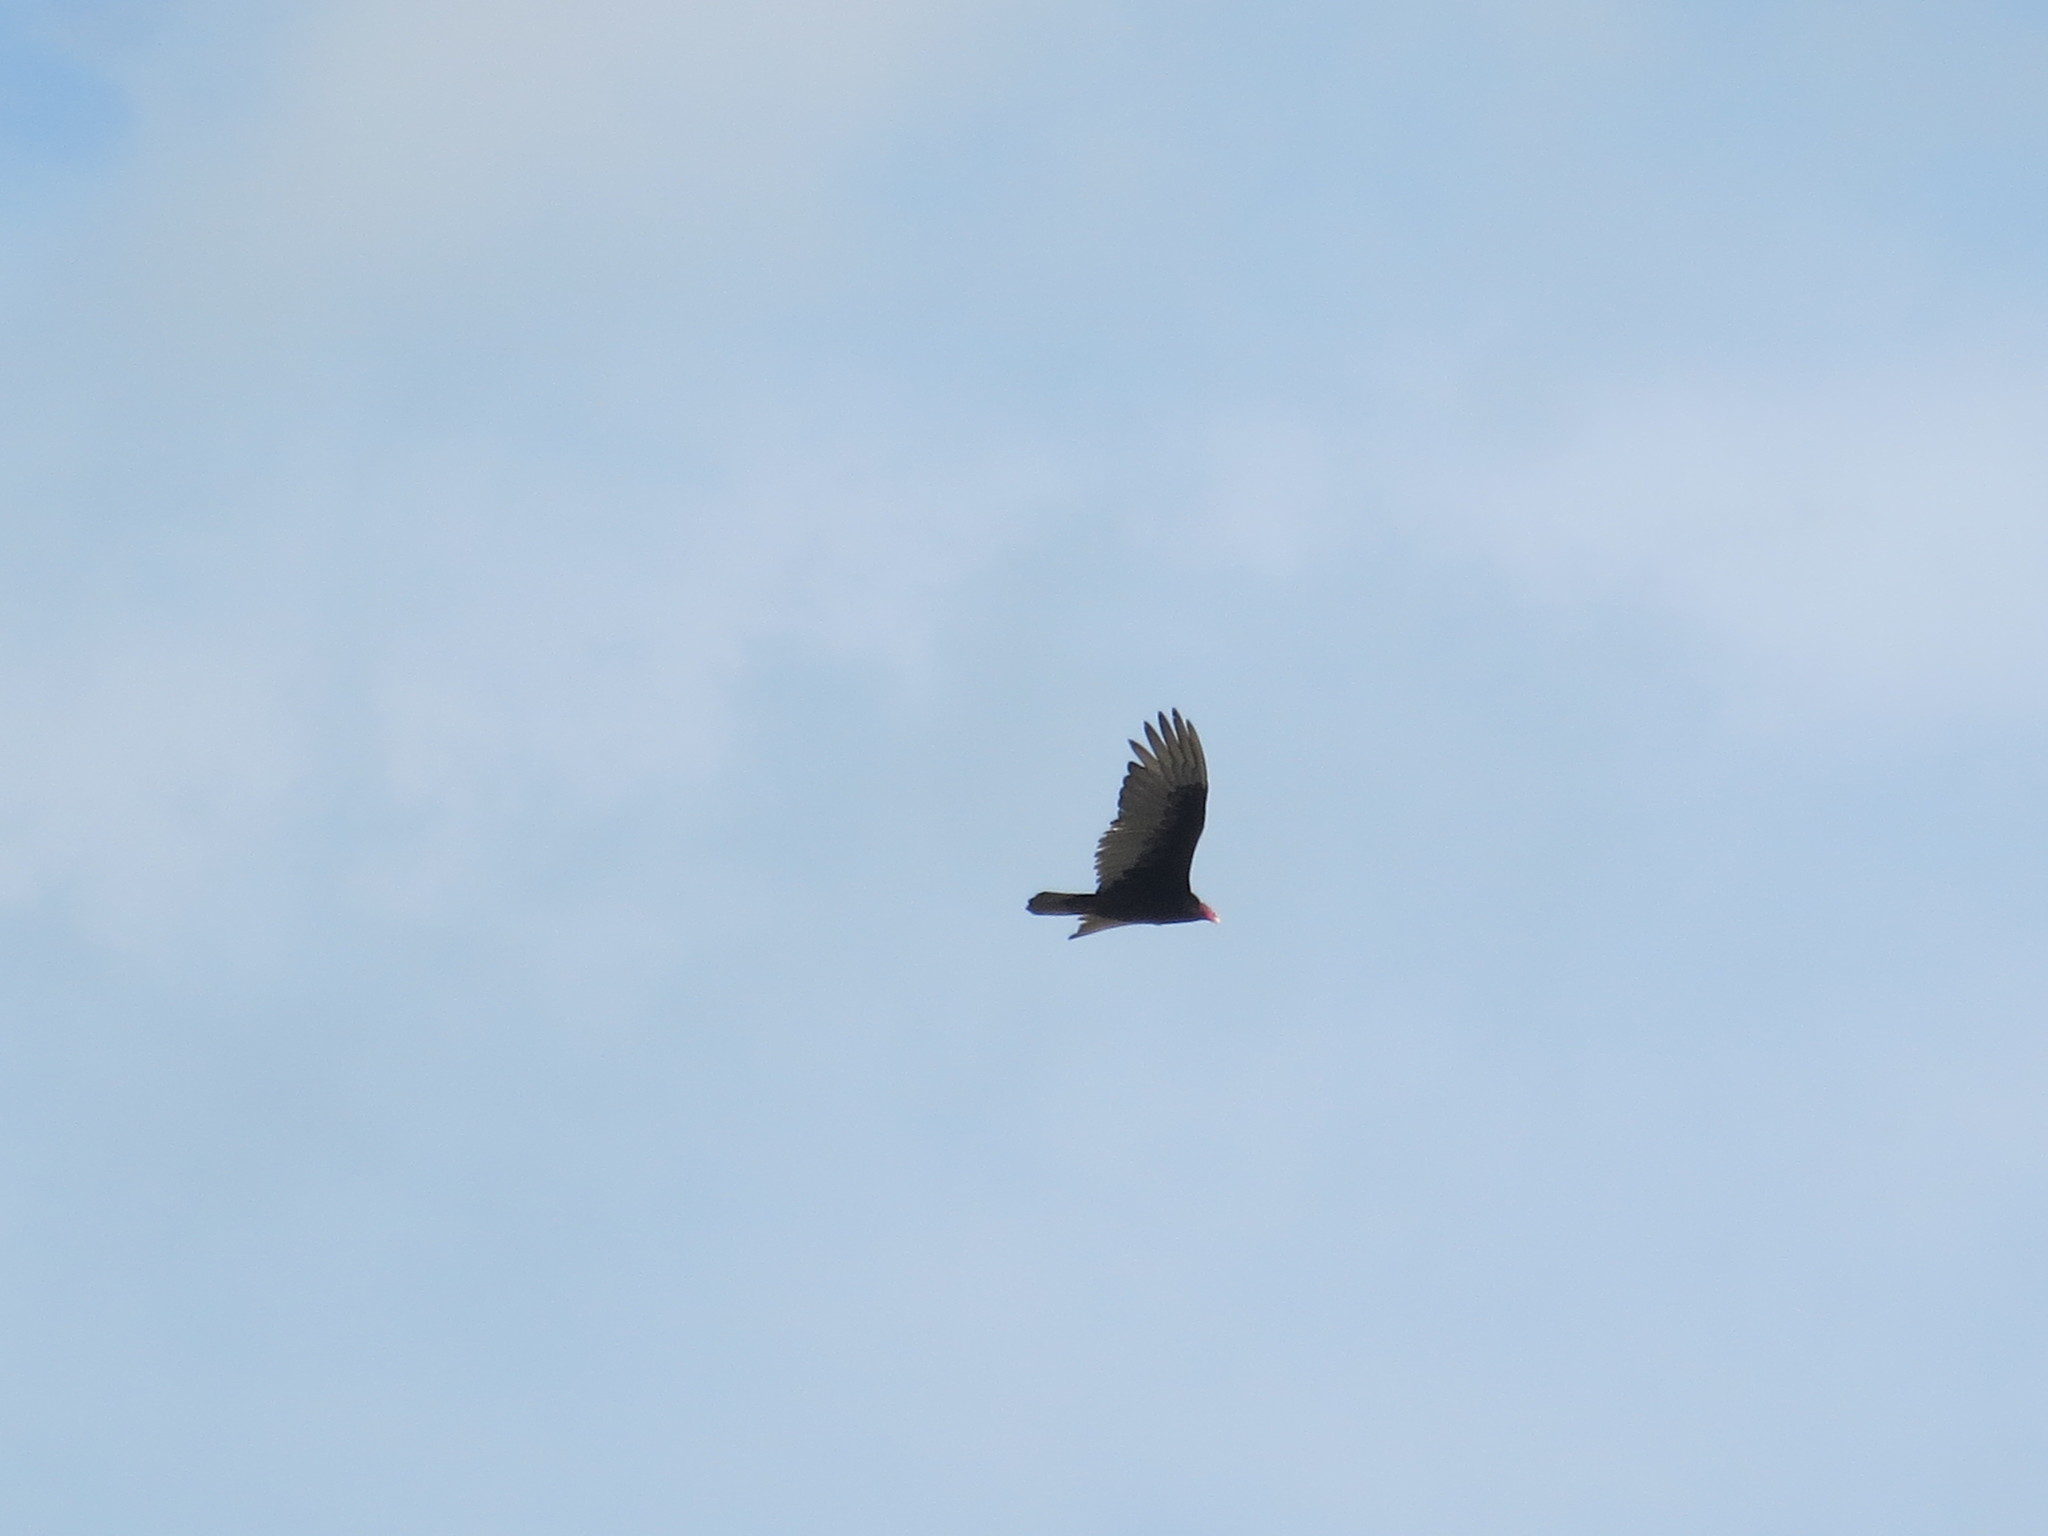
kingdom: Animalia
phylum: Chordata
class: Aves
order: Accipitriformes
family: Cathartidae
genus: Cathartes
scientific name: Cathartes aura
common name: Turkey vulture
